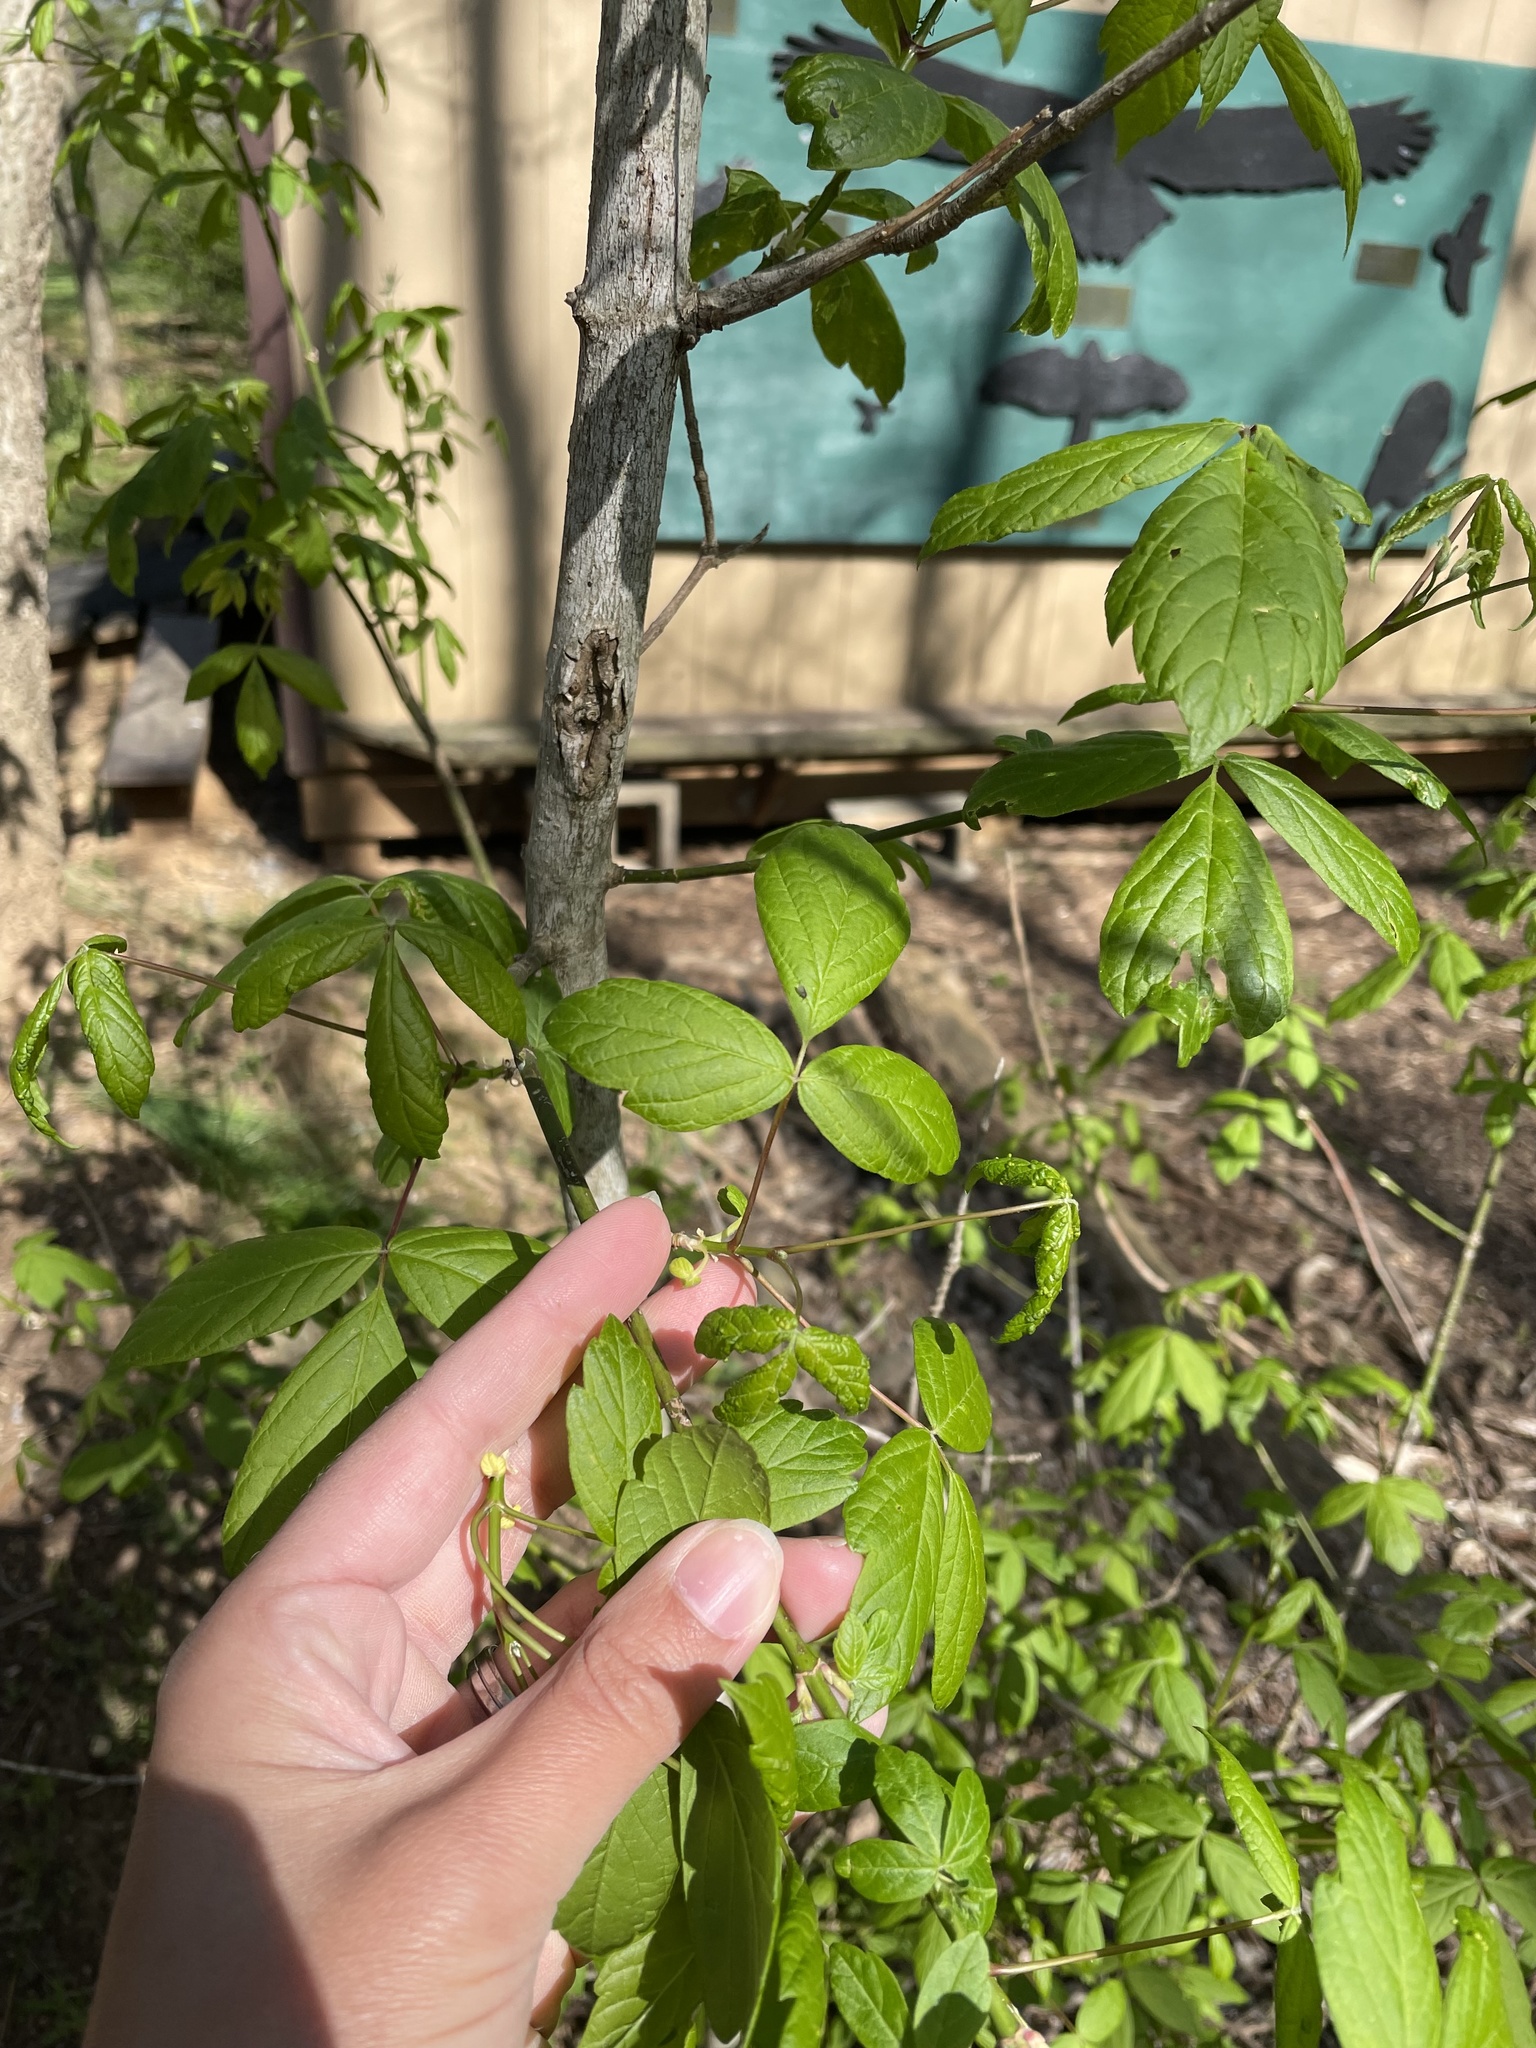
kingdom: Plantae
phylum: Tracheophyta
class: Magnoliopsida
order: Sapindales
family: Sapindaceae
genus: Acer
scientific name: Acer negundo
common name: Ashleaf maple
